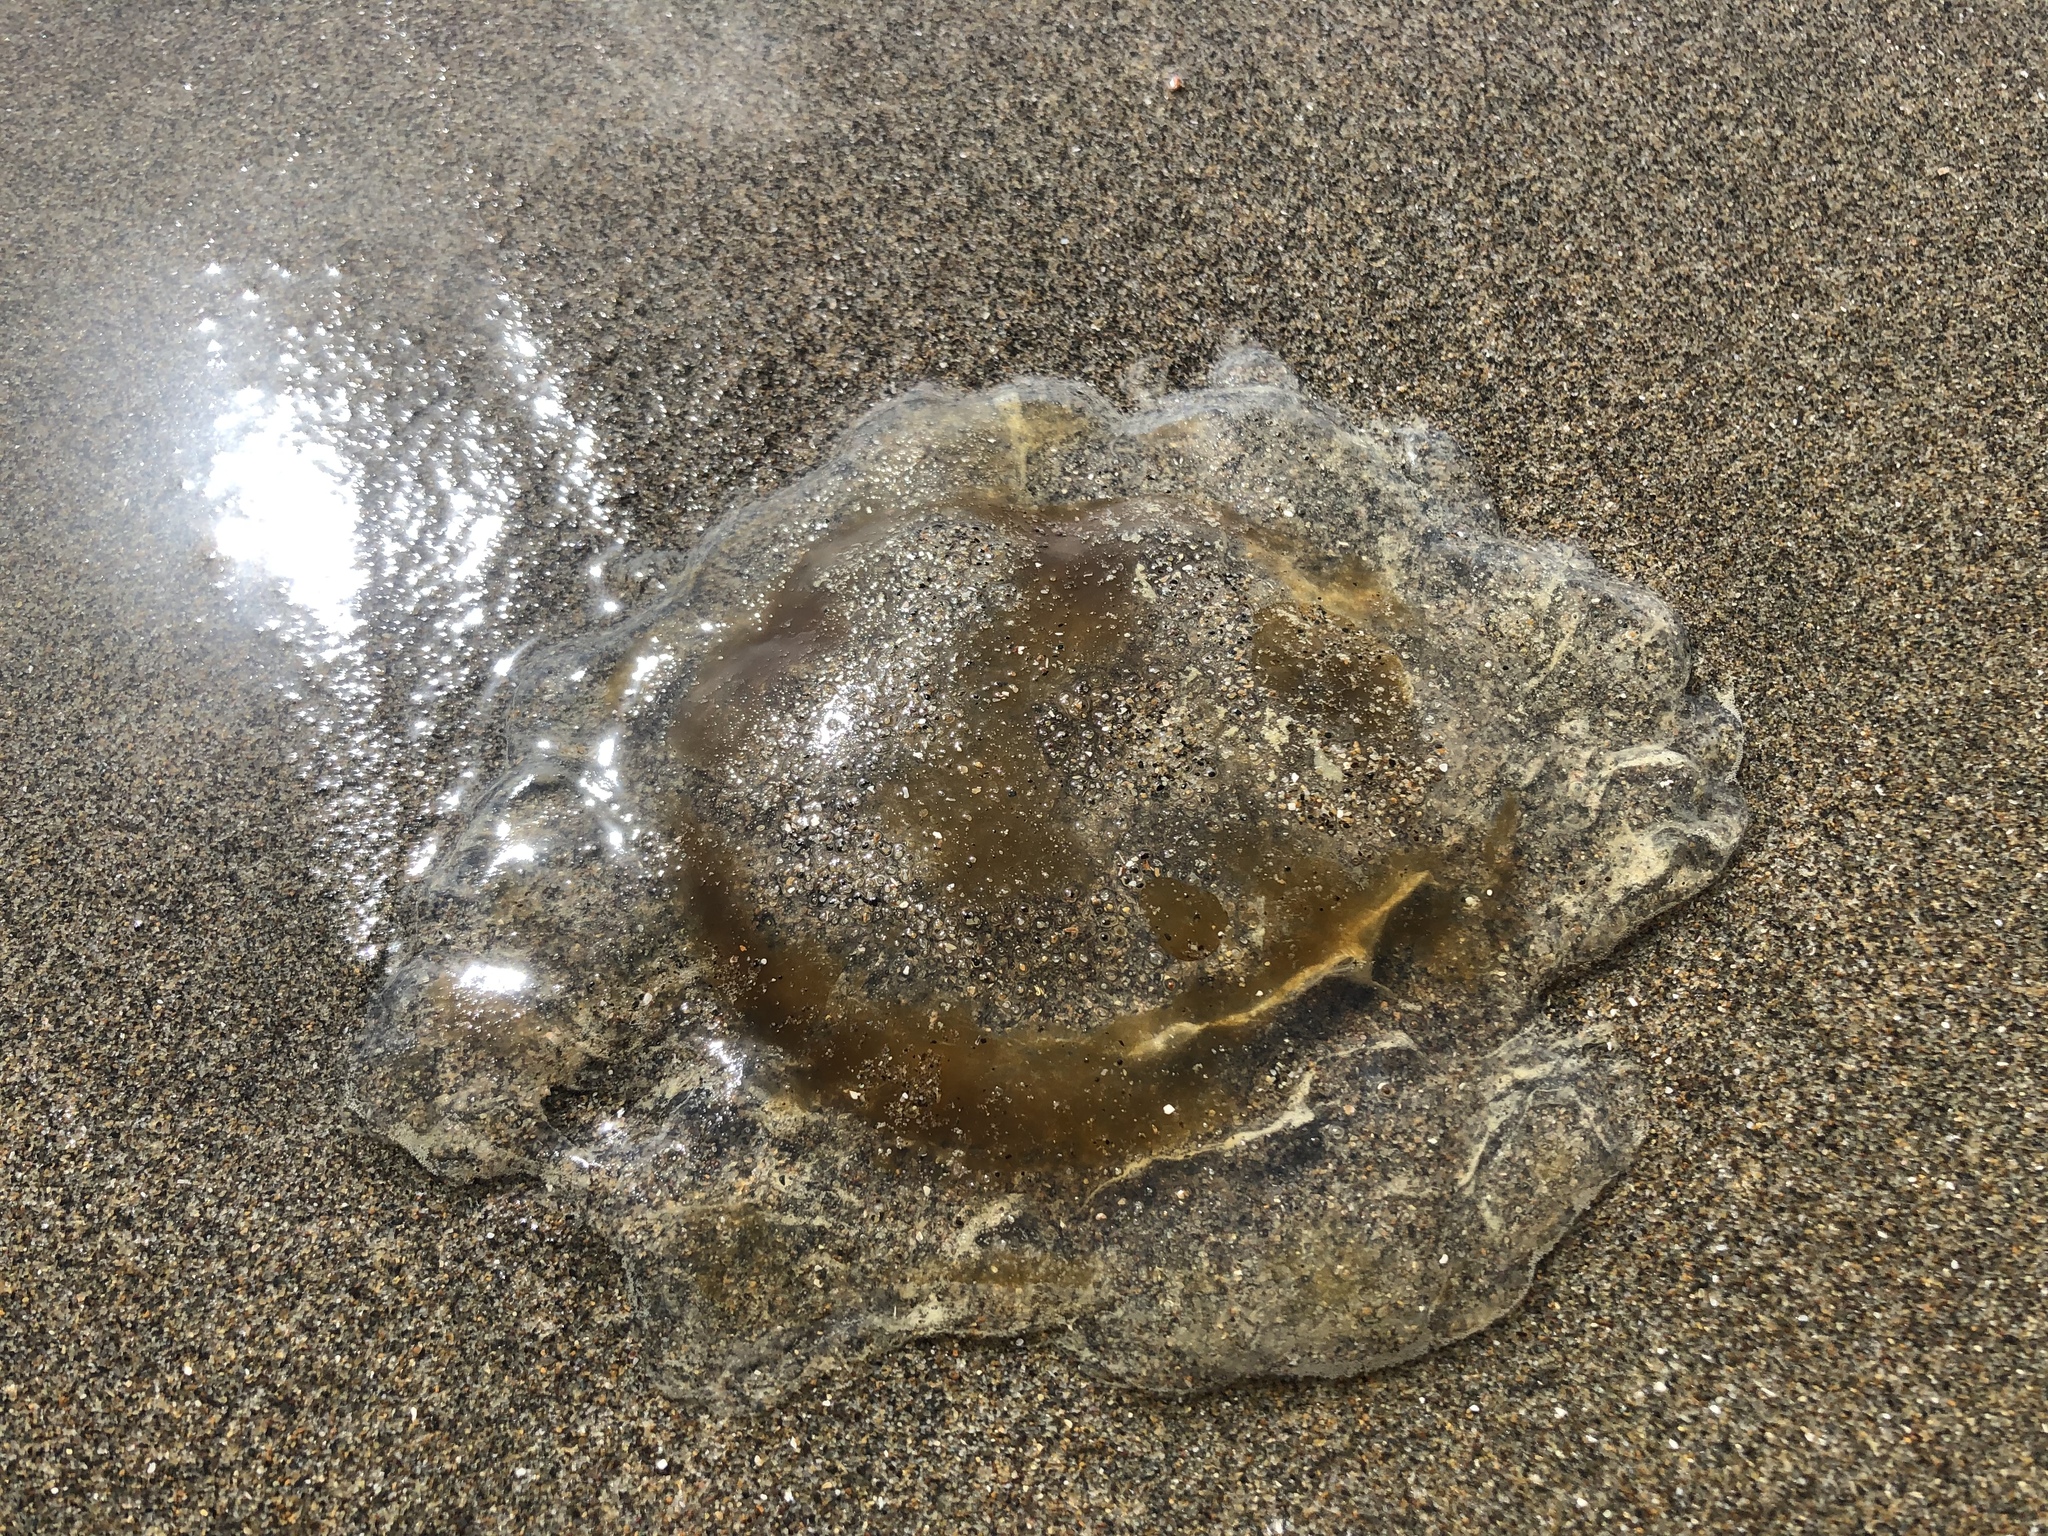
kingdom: Animalia
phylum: Cnidaria
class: Scyphozoa
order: Semaeostomeae
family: Pelagiidae
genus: Chrysaora
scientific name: Chrysaora fuscescens
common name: Sea nettle
